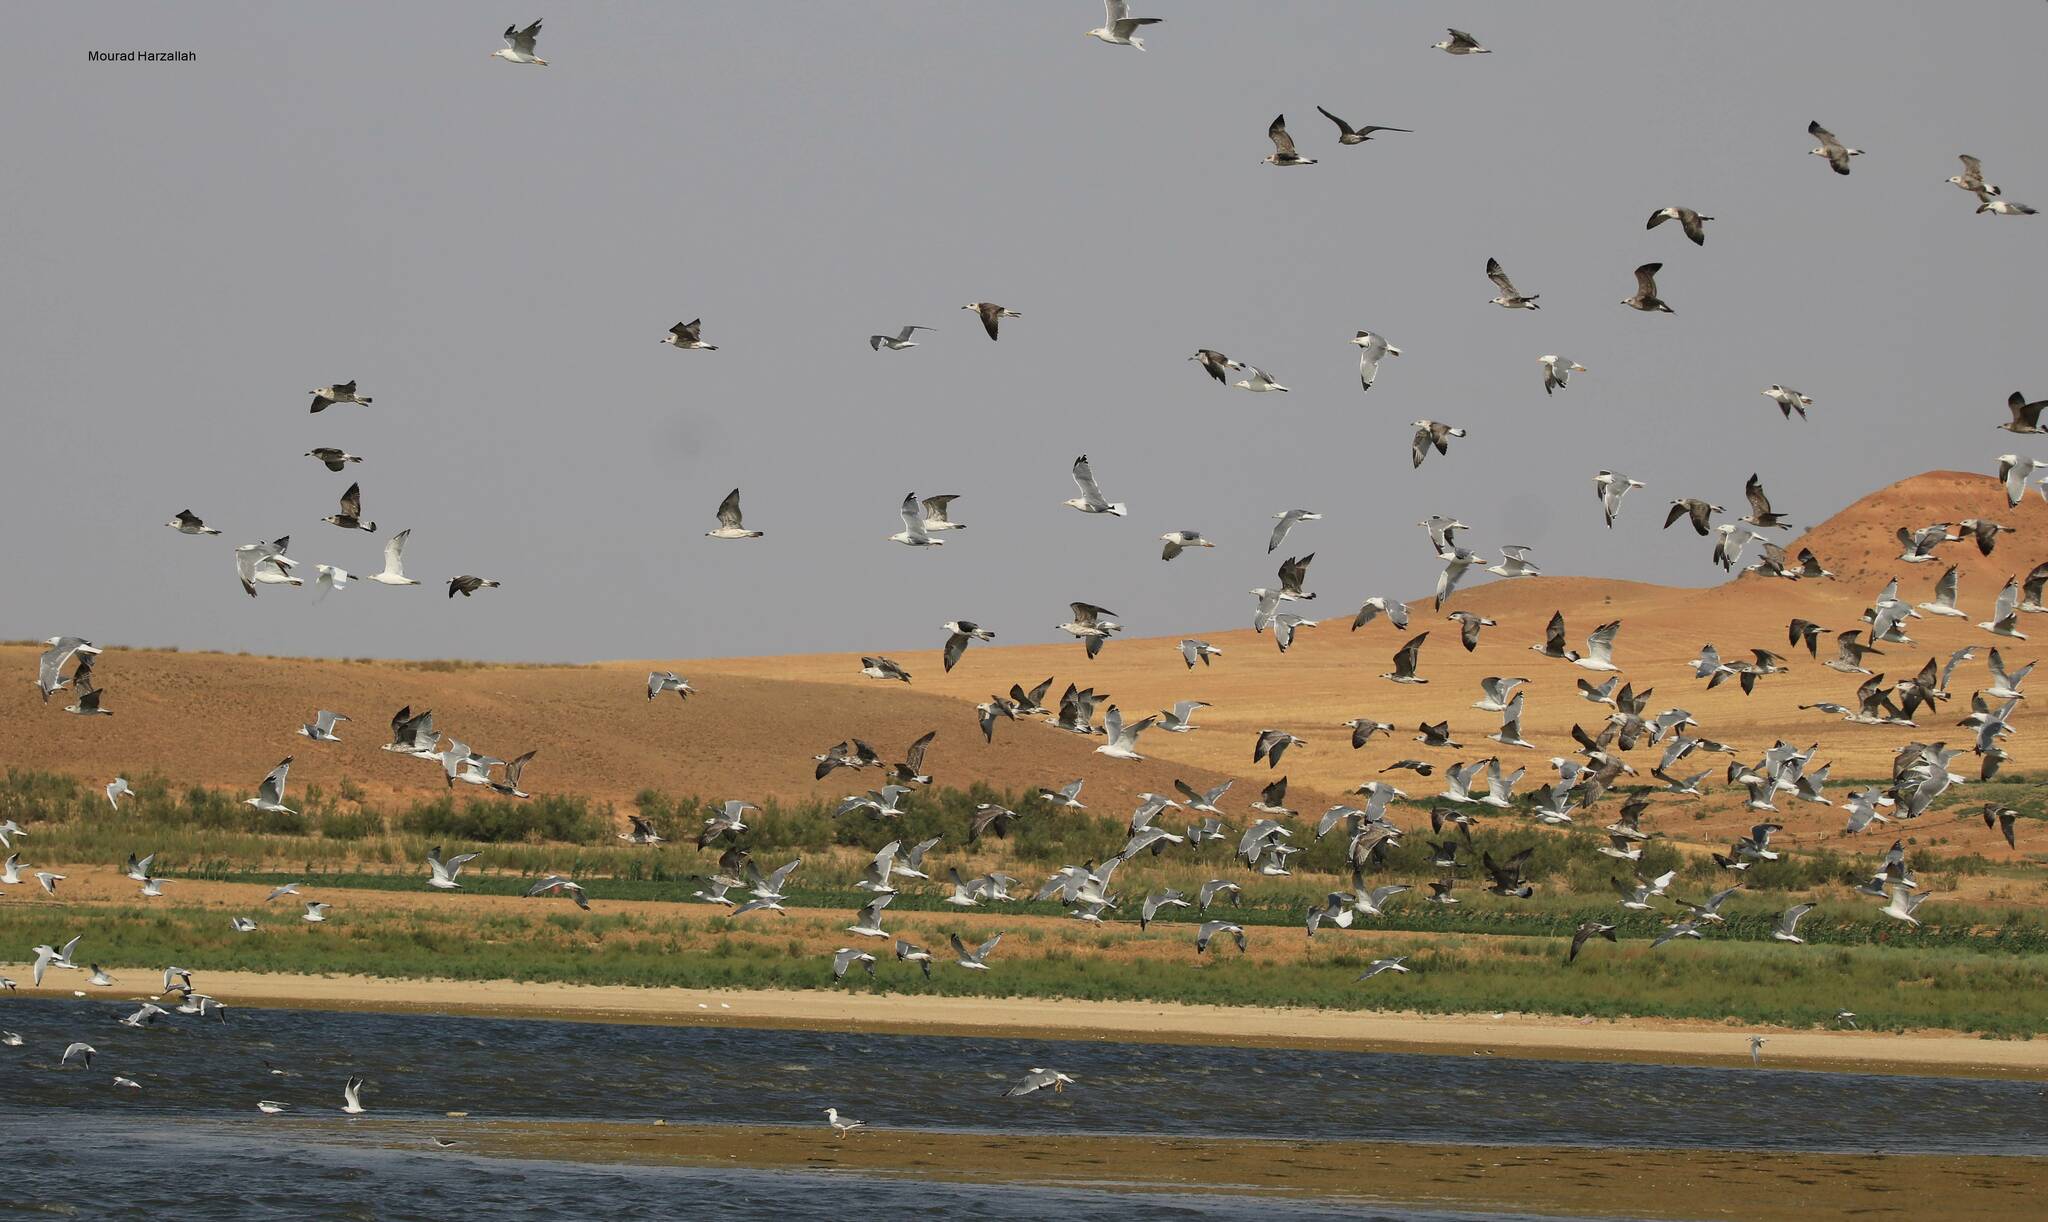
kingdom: Animalia
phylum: Chordata
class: Aves
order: Charadriiformes
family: Laridae
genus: Larus
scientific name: Larus michahellis
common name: Yellow-legged gull
